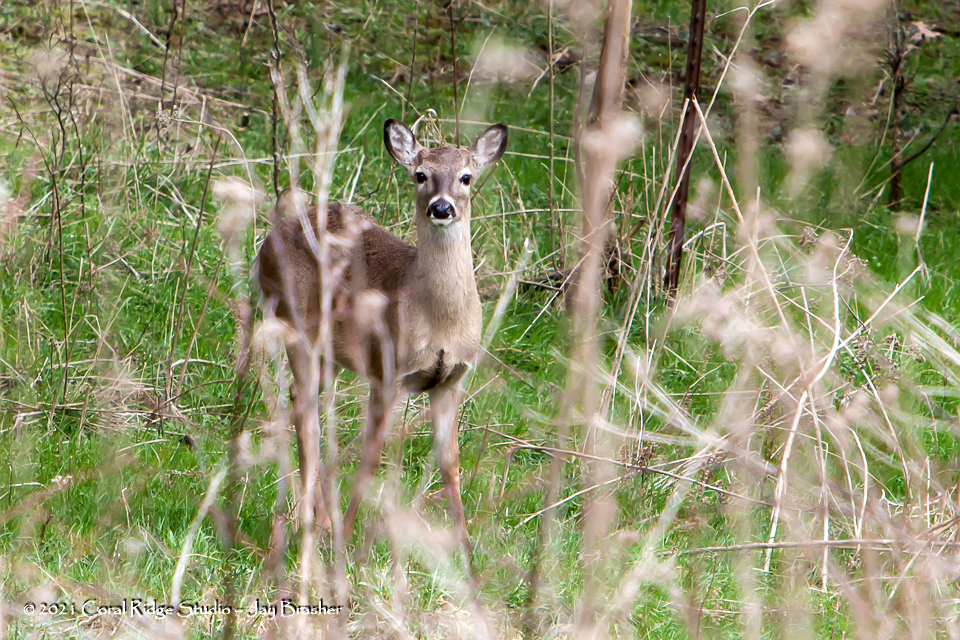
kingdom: Animalia
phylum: Chordata
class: Mammalia
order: Artiodactyla
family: Cervidae
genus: Odocoileus
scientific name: Odocoileus virginianus
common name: White-tailed deer
